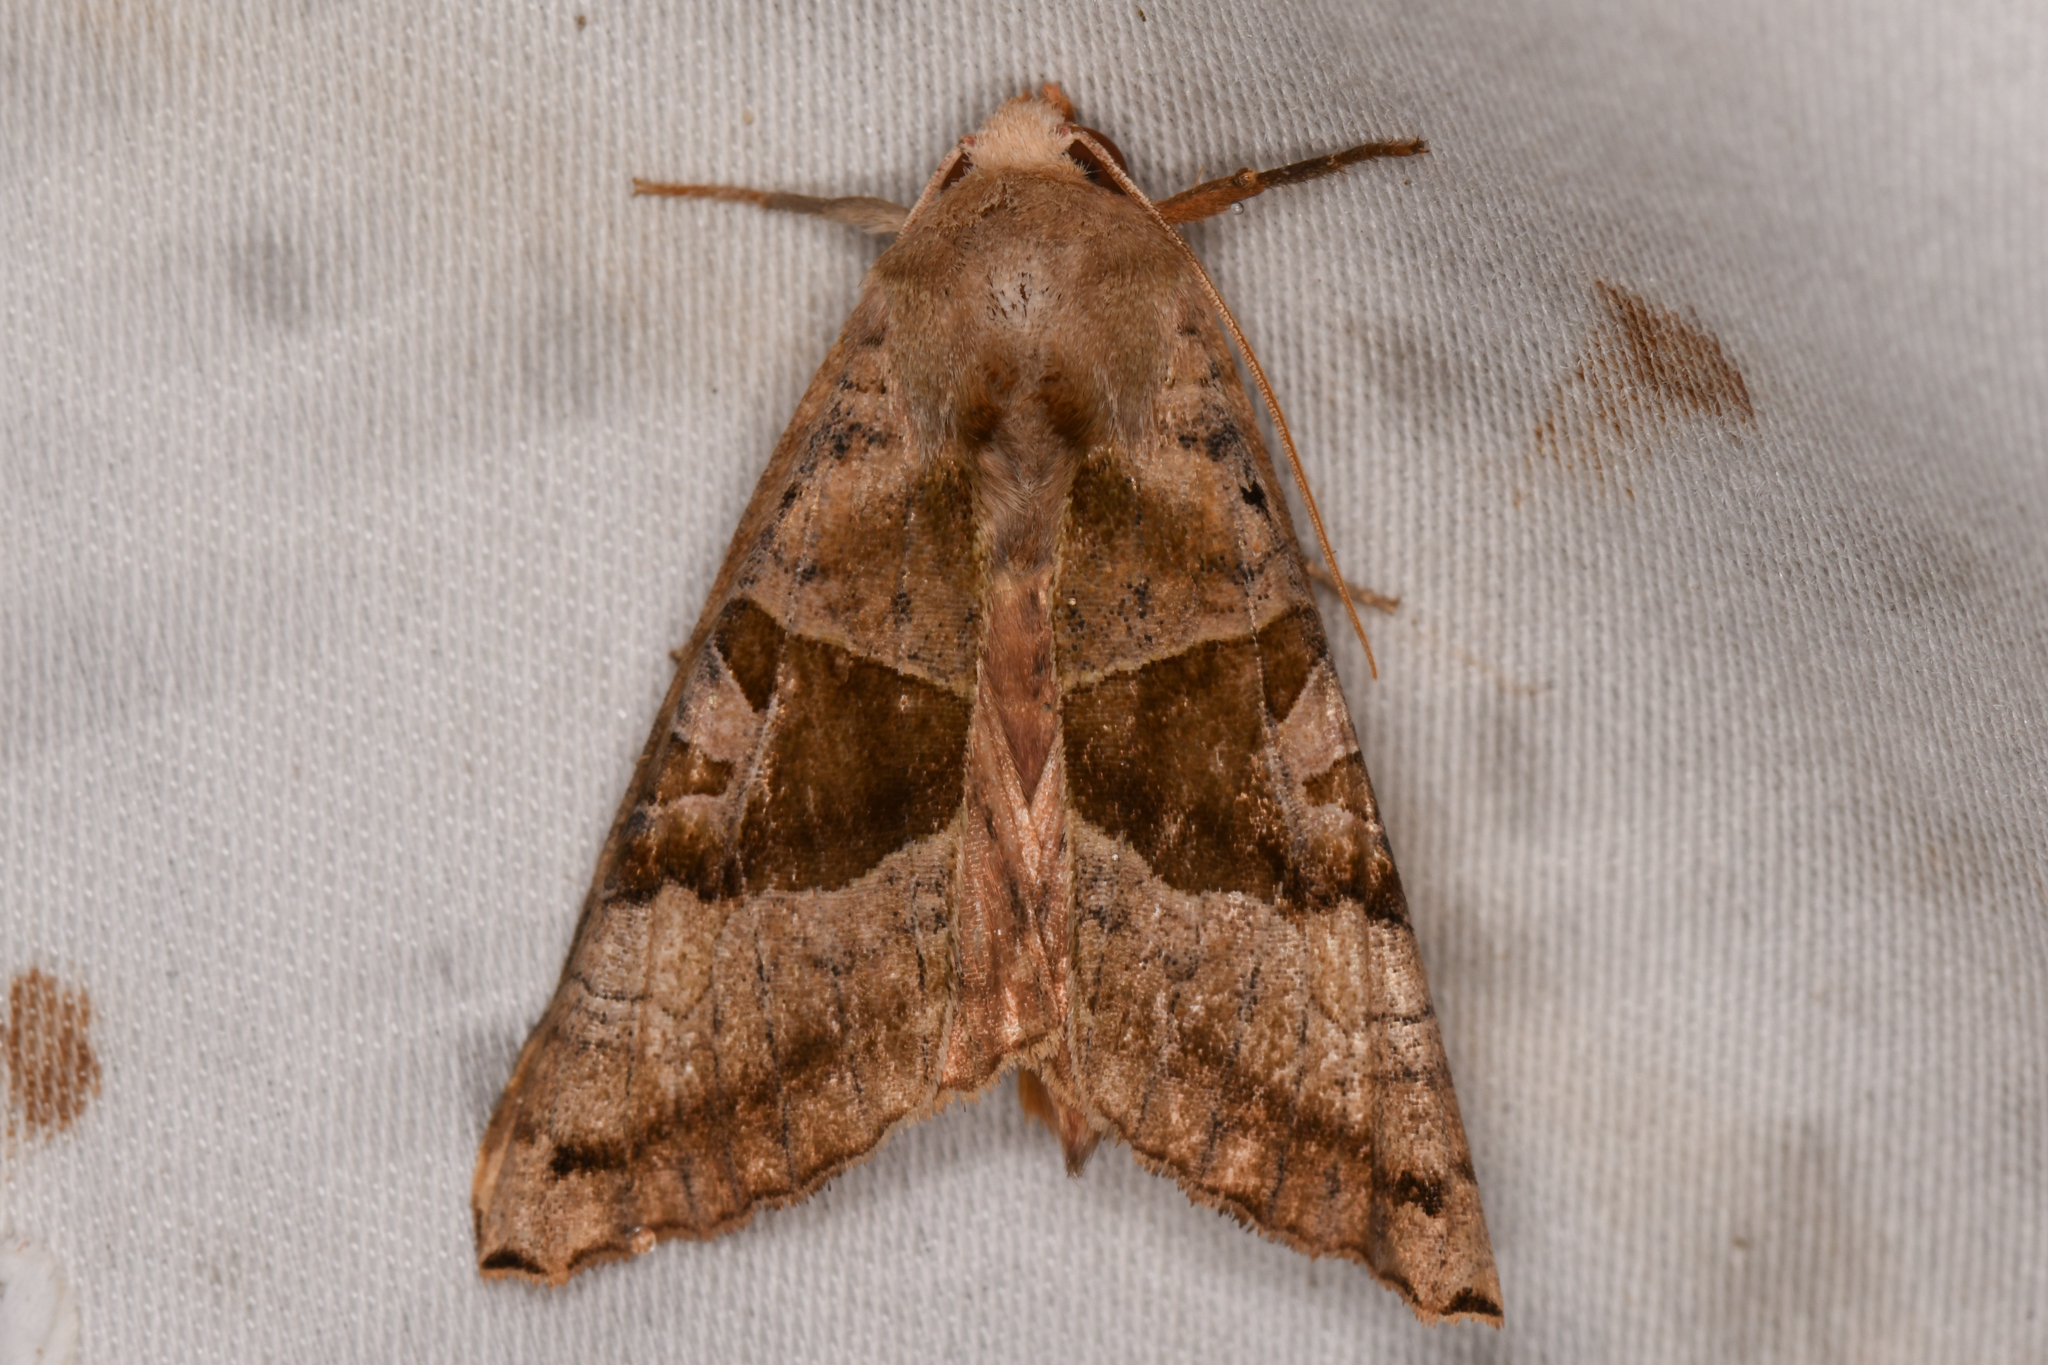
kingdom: Animalia
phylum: Arthropoda
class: Insecta
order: Lepidoptera
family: Noctuidae
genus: Phlogophora
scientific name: Phlogophora periculosa
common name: Brown angle shades
